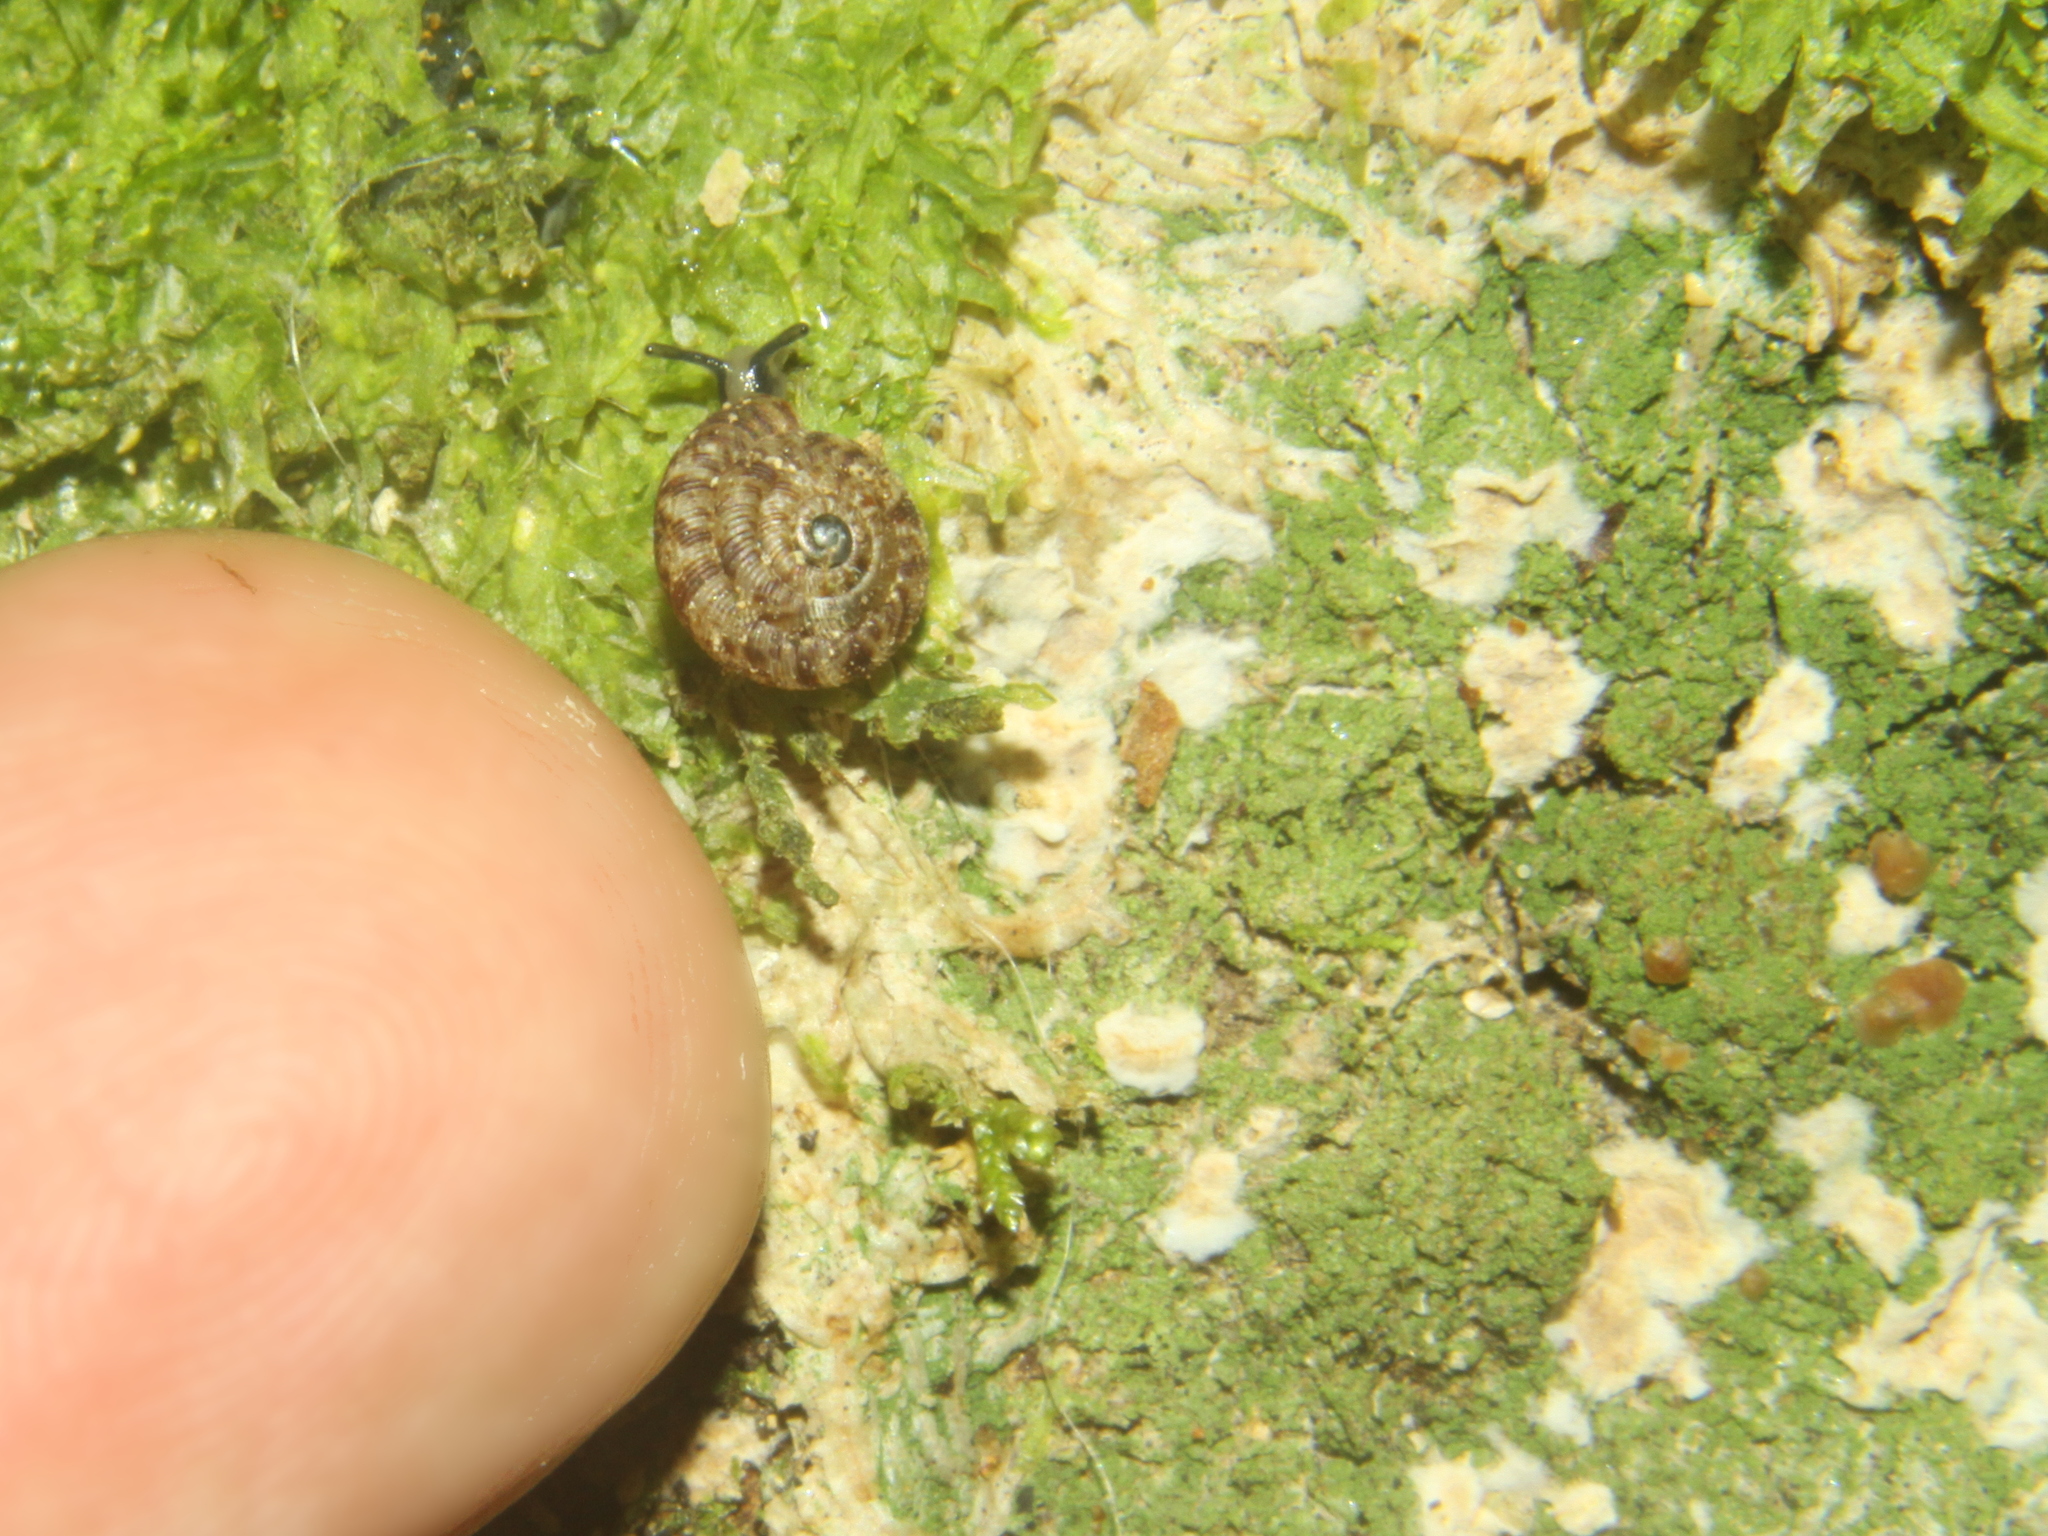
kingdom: Animalia
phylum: Mollusca
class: Gastropoda
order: Stylommatophora
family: Charopidae
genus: Phacussa
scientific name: Phacussa lucetta
